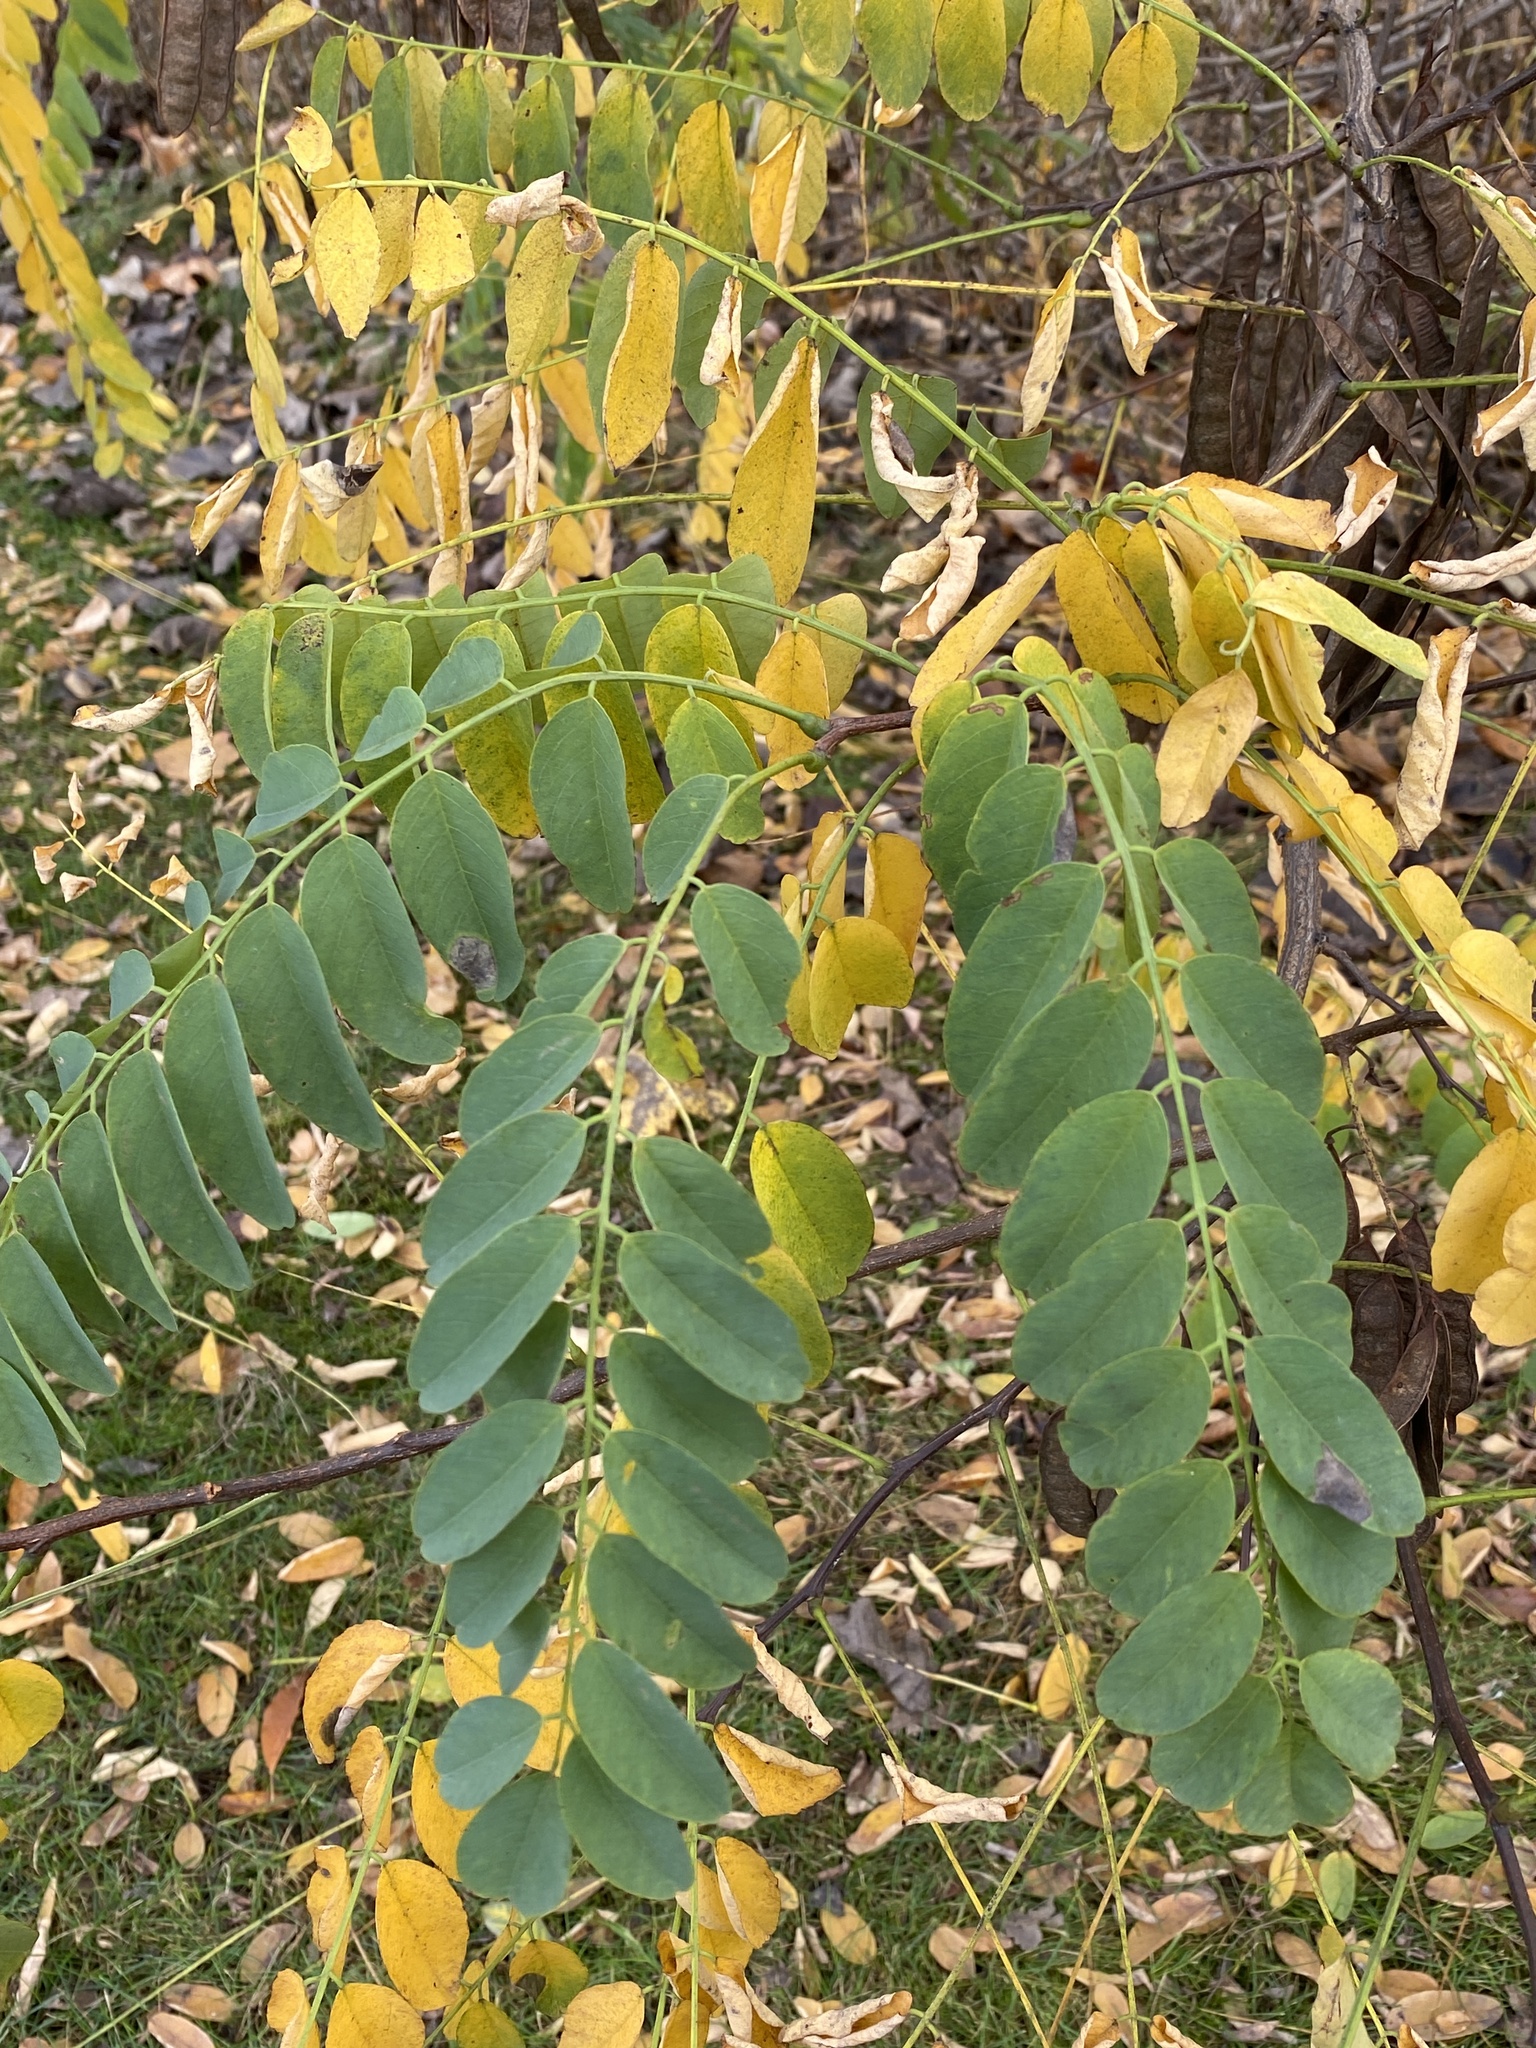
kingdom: Animalia
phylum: Arthropoda
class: Insecta
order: Lepidoptera
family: Tortricidae
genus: Ecdytolopha
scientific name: Ecdytolopha insiticiana
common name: Locust twig borer moth
